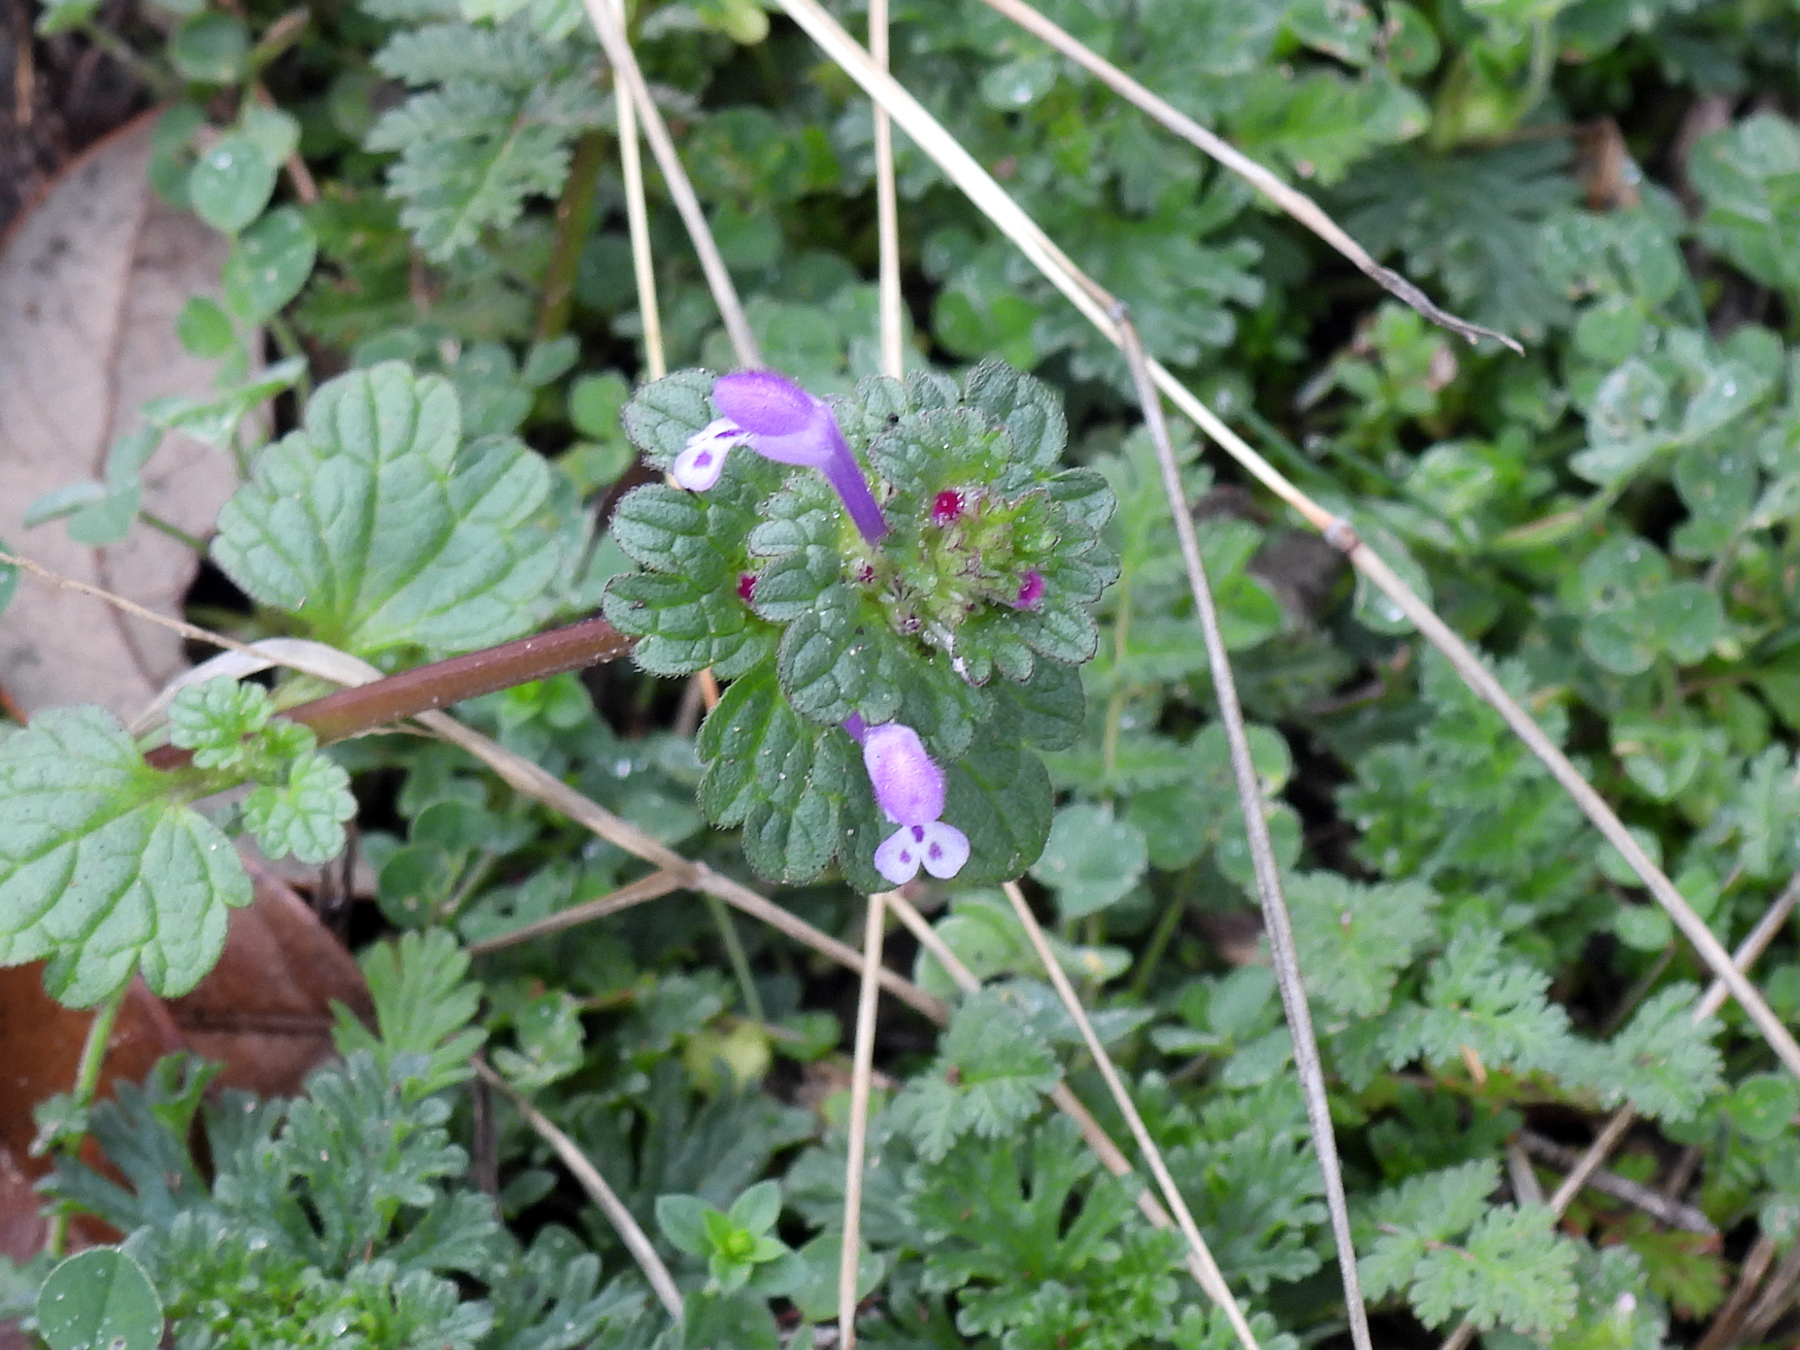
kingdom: Plantae
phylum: Tracheophyta
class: Magnoliopsida
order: Lamiales
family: Lamiaceae
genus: Lamium
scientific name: Lamium amplexicaule
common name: Henbit dead-nettle
